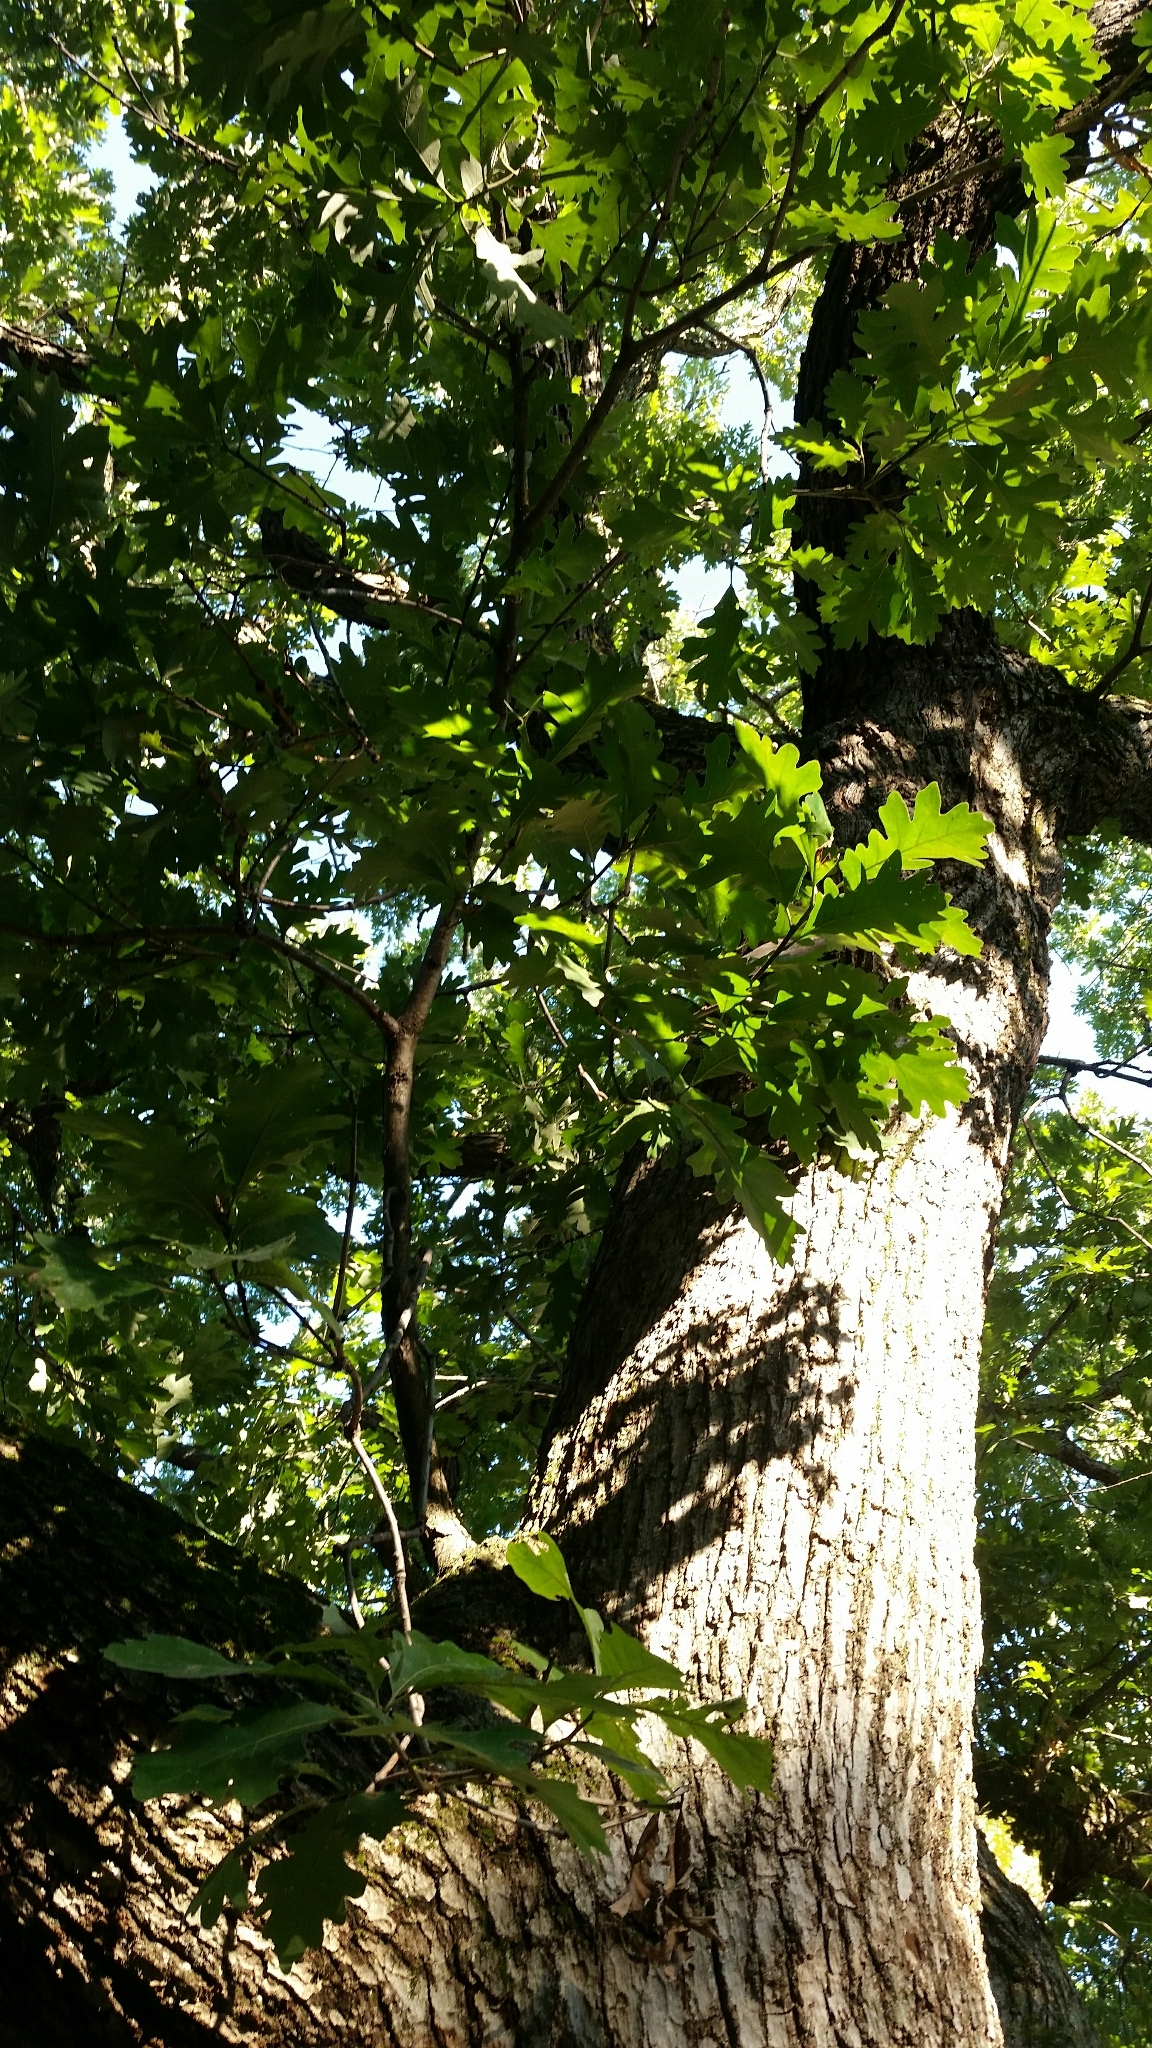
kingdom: Plantae
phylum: Tracheophyta
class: Magnoliopsida
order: Fagales
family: Fagaceae
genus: Quercus
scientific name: Quercus alba
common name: White oak
